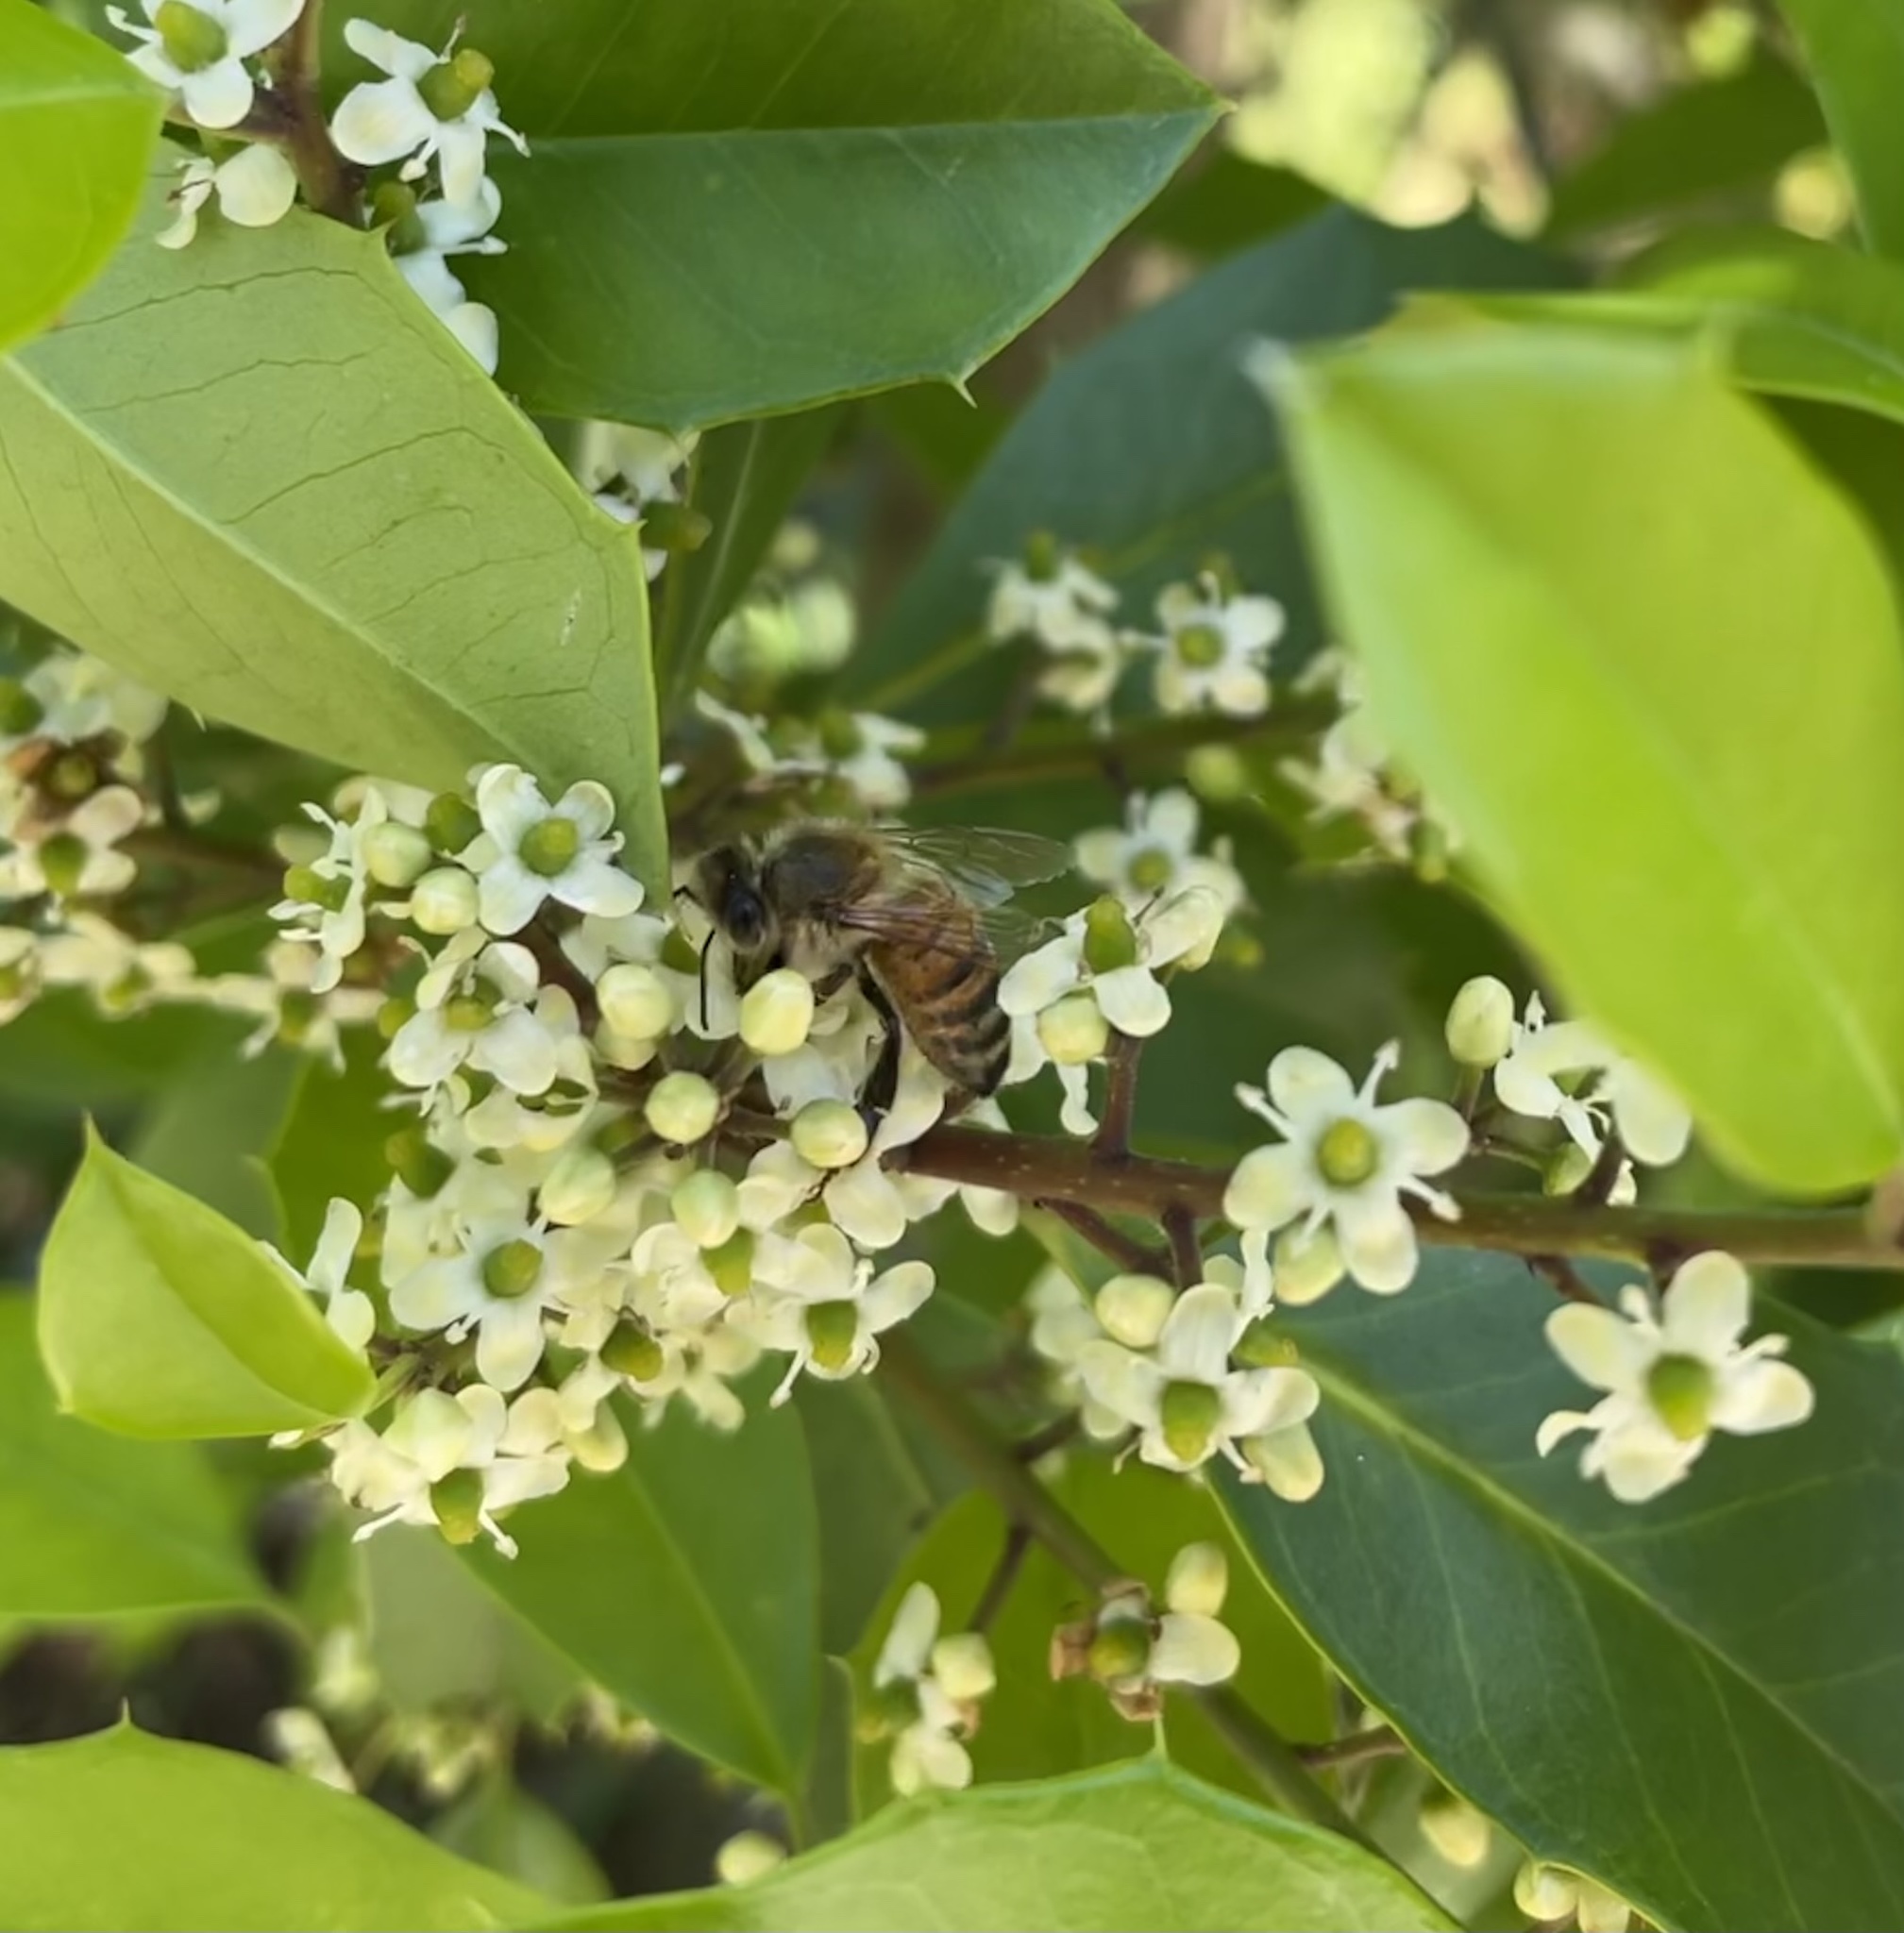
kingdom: Animalia
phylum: Arthropoda
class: Insecta
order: Hymenoptera
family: Apidae
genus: Apis
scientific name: Apis mellifera
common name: Honey bee
